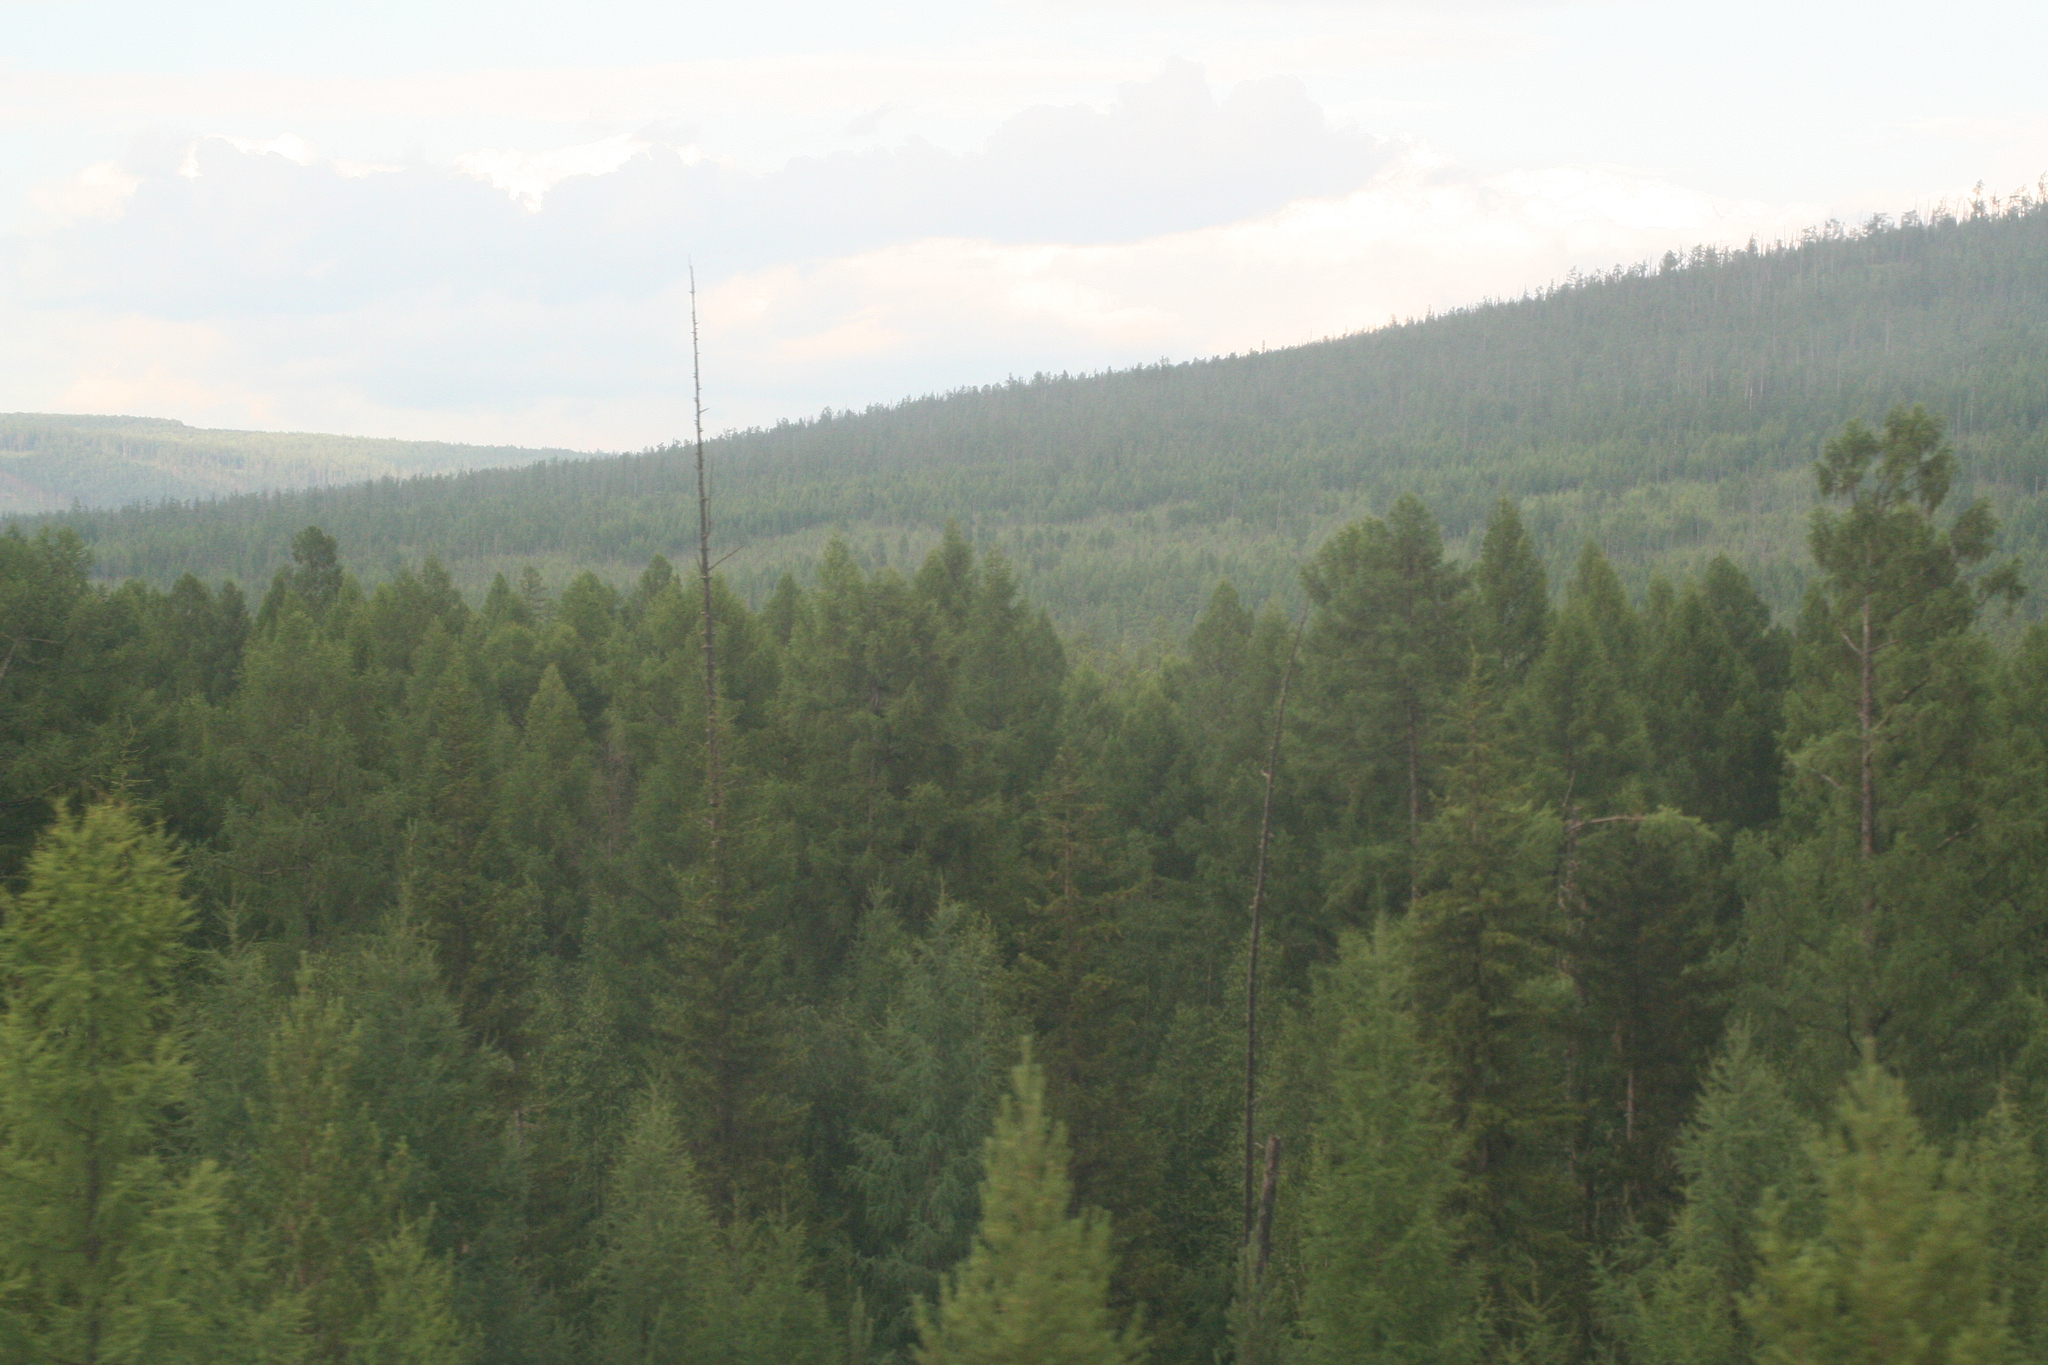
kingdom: Plantae
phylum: Tracheophyta
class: Pinopsida
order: Pinales
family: Pinaceae
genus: Picea
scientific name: Picea obovata
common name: Siberian spruce
